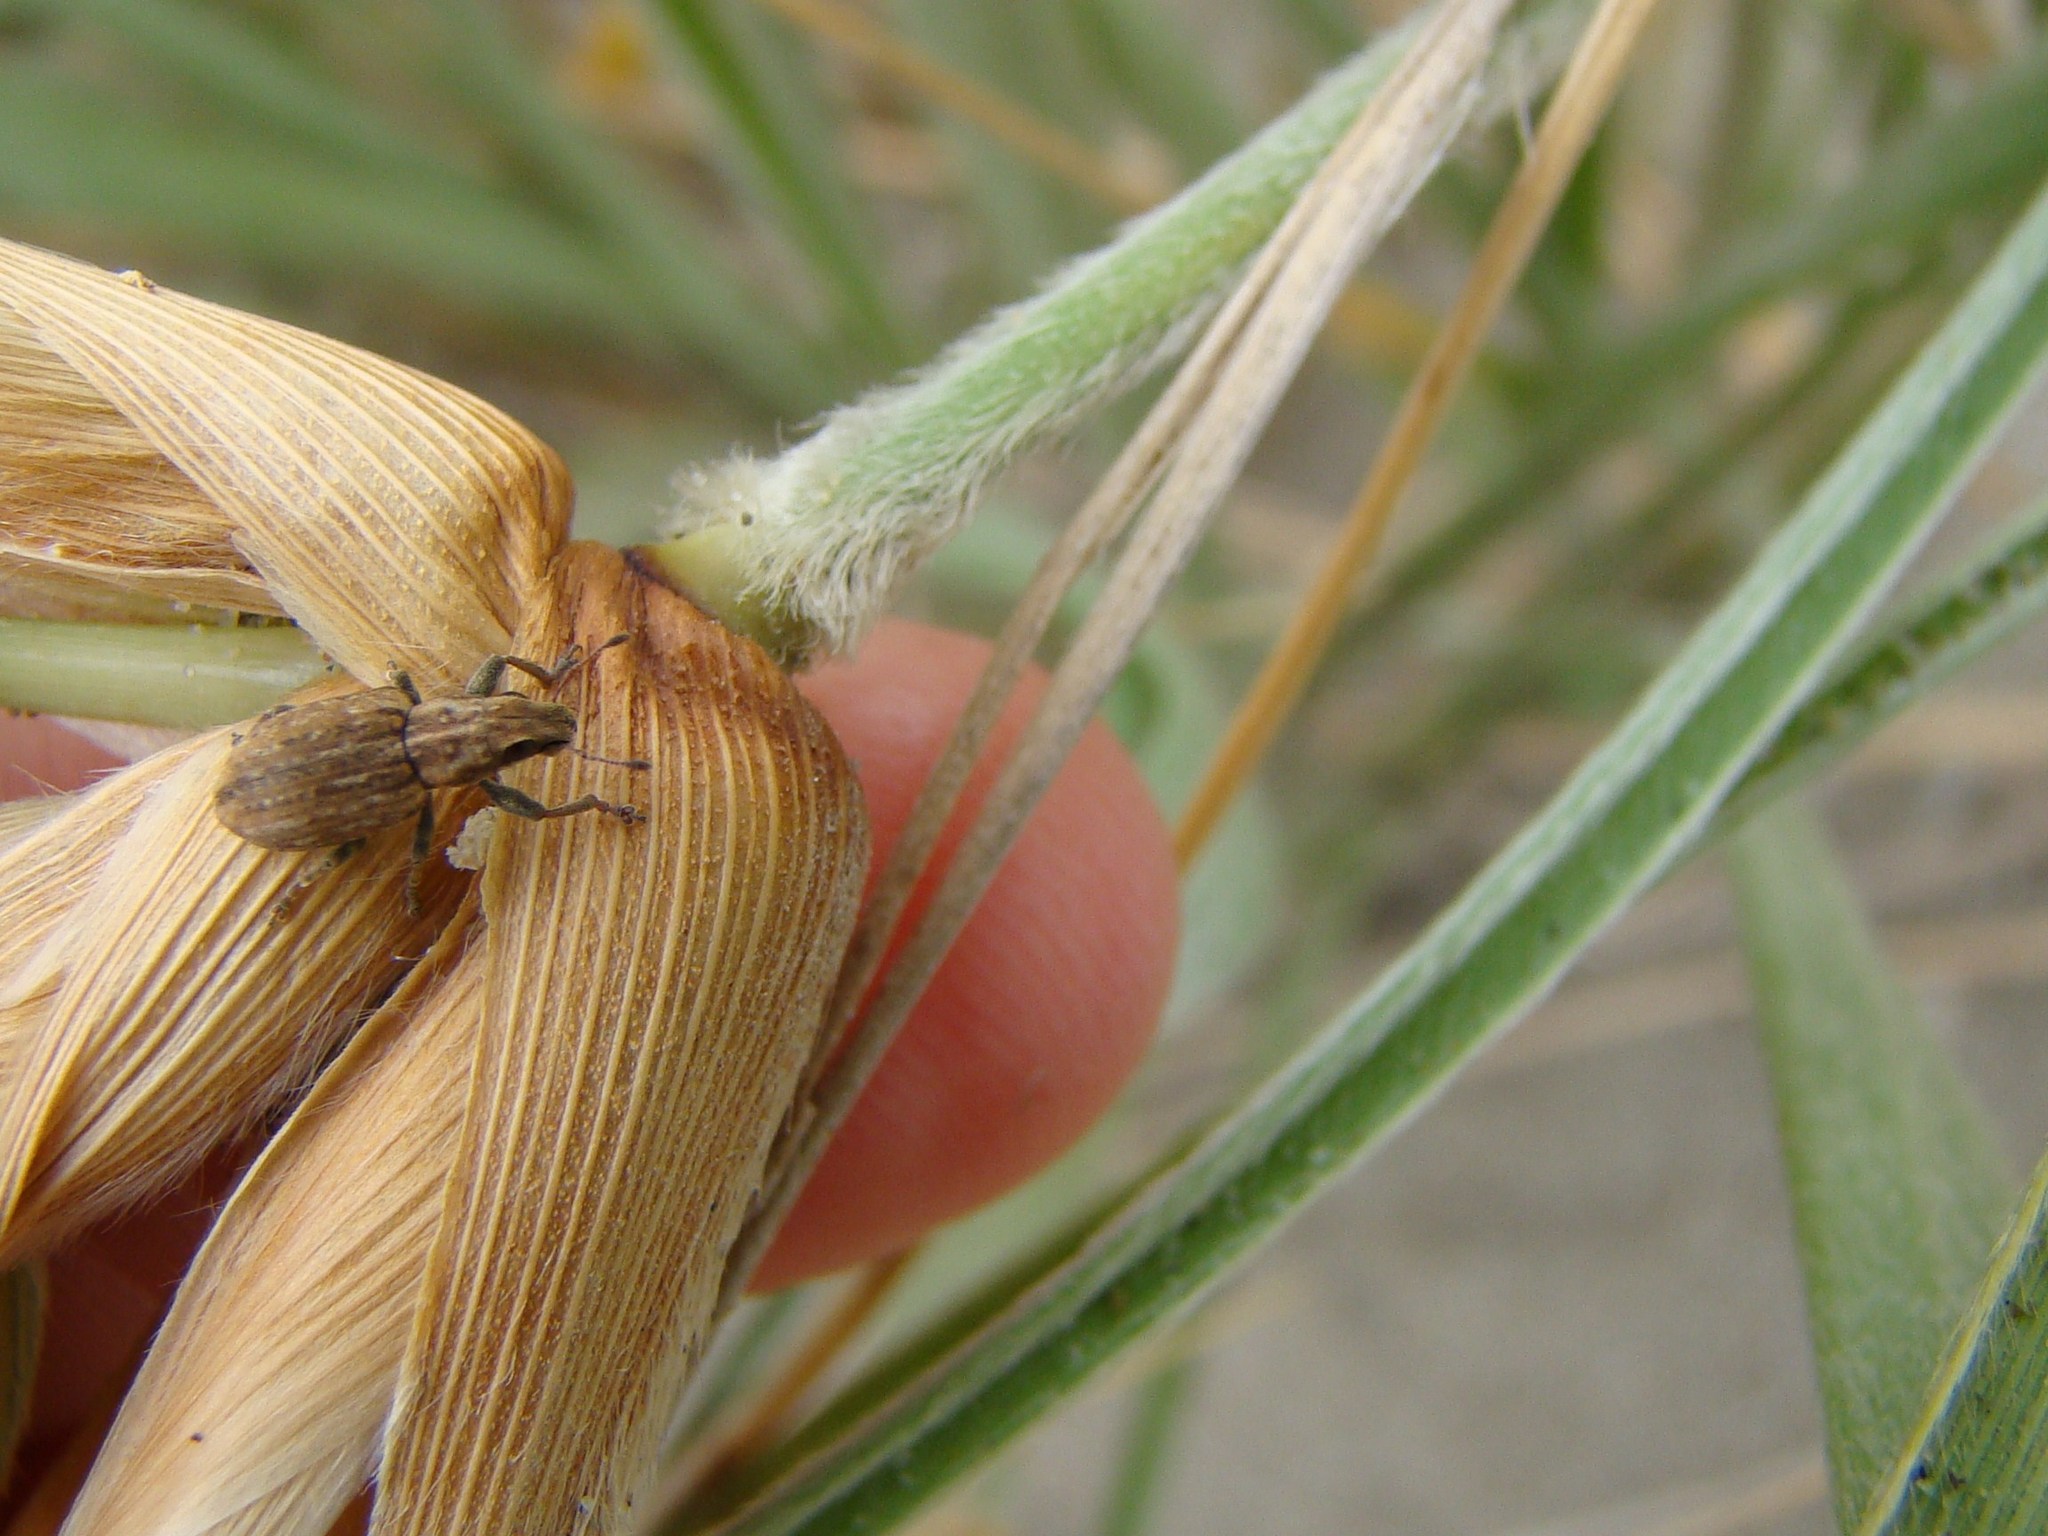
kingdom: Animalia
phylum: Arthropoda
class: Insecta
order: Coleoptera
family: Curculionidae
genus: Sitona
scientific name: Sitona obsoletus
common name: Weevil
